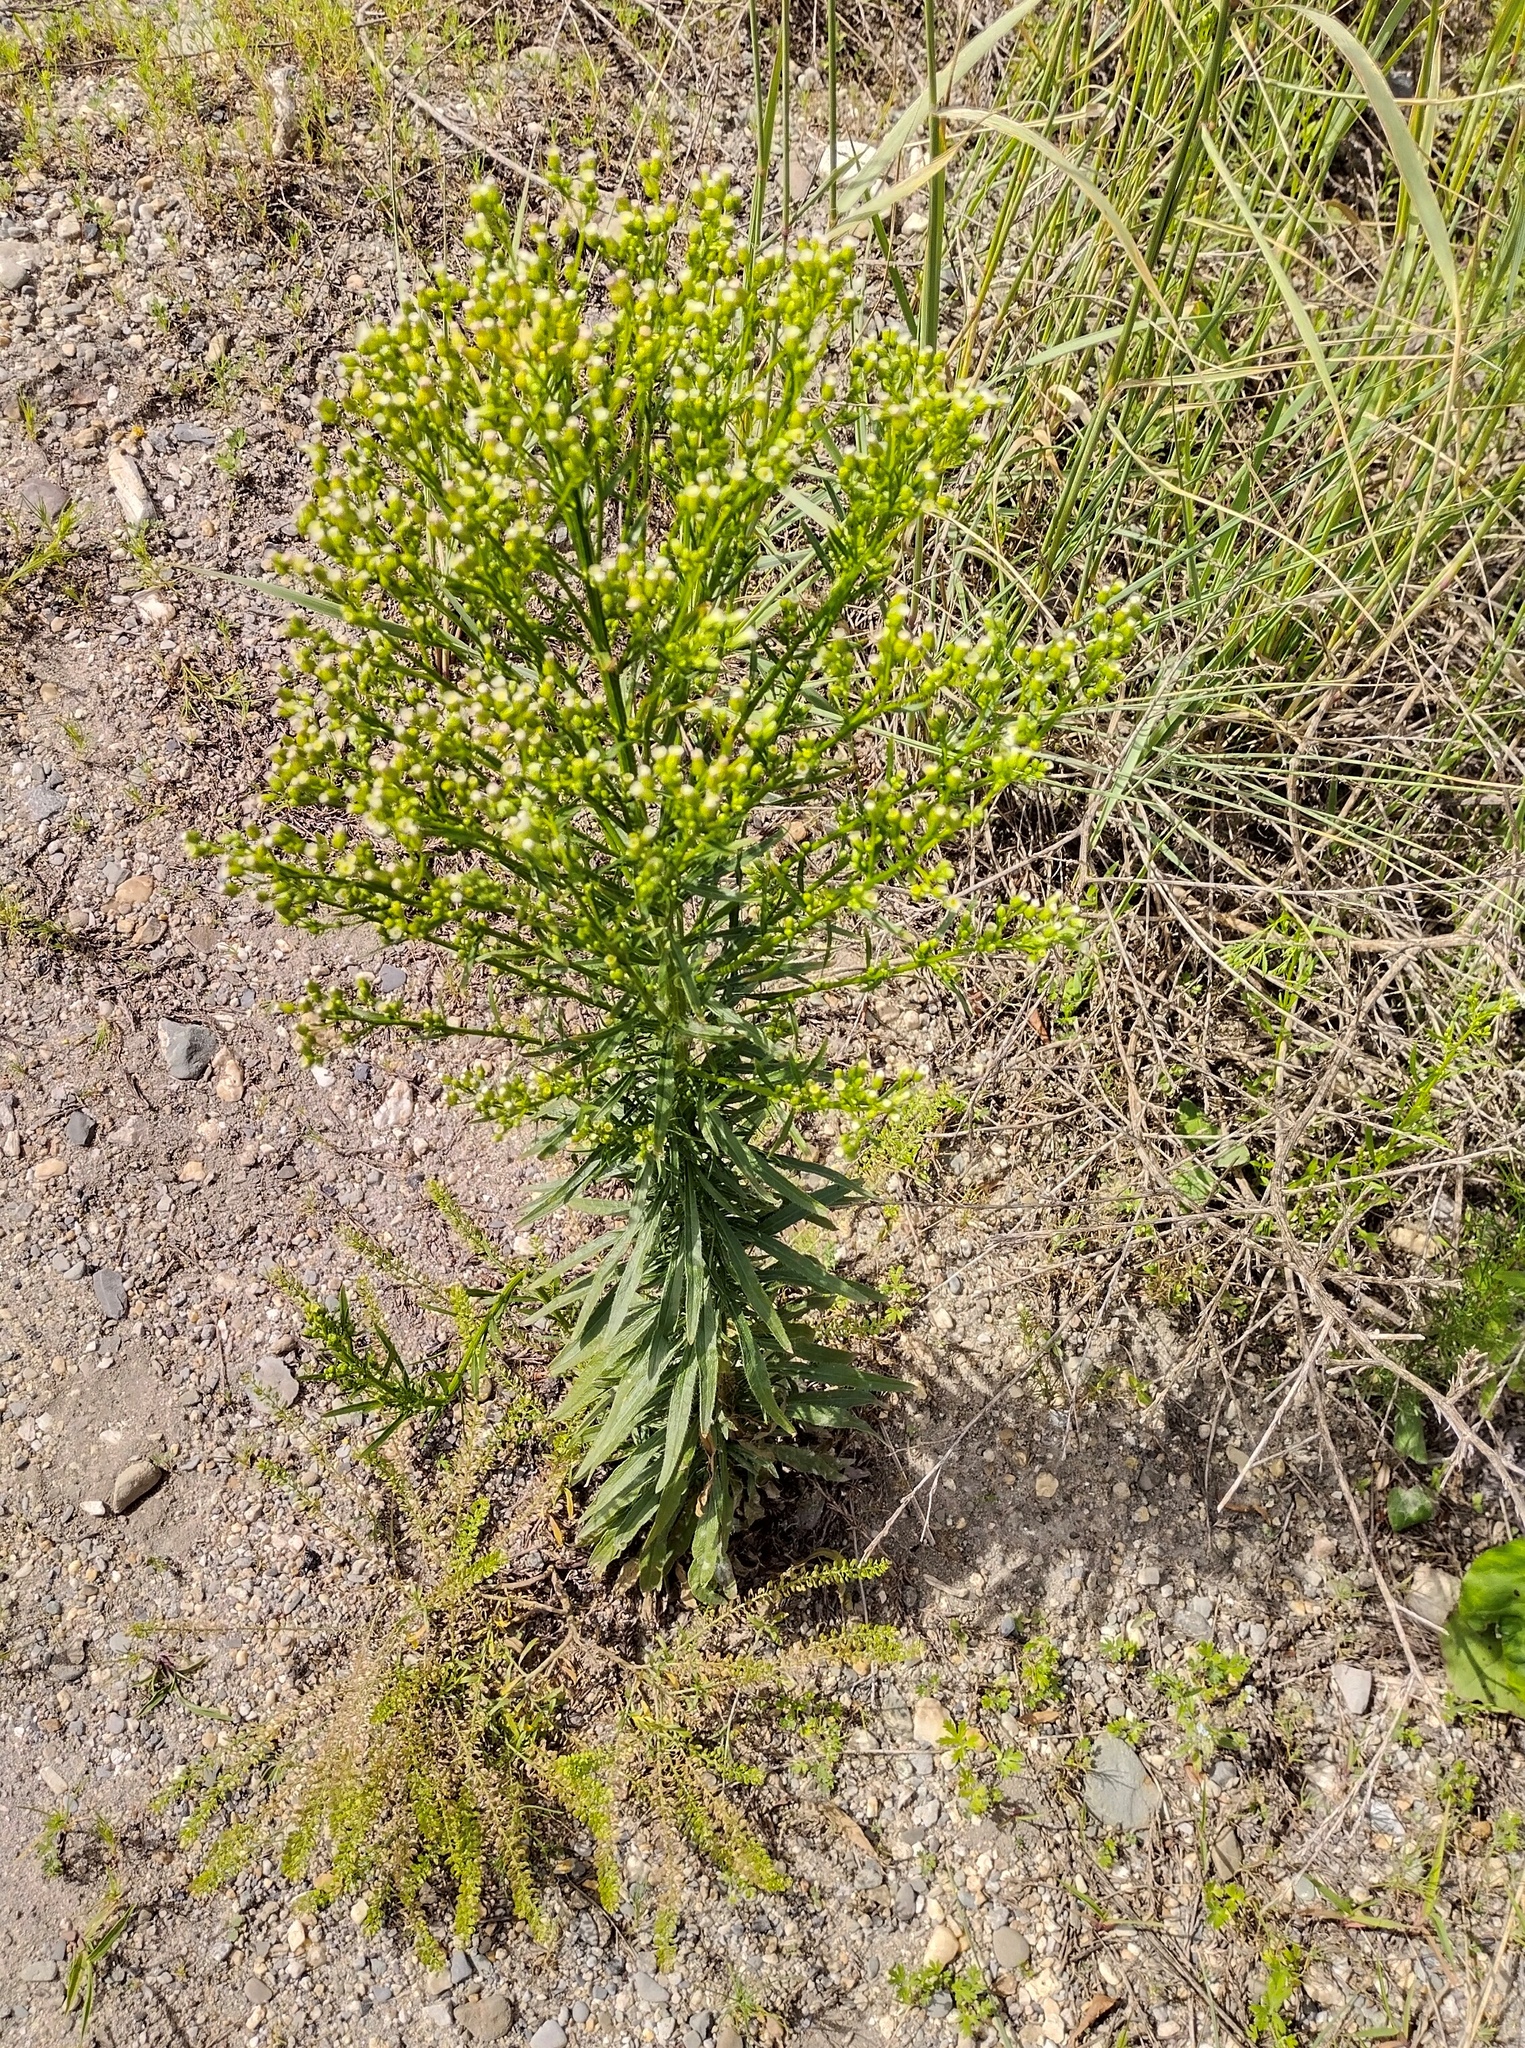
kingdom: Plantae
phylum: Tracheophyta
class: Magnoliopsida
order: Asterales
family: Asteraceae
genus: Erigeron
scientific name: Erigeron canadensis
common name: Canadian fleabane
